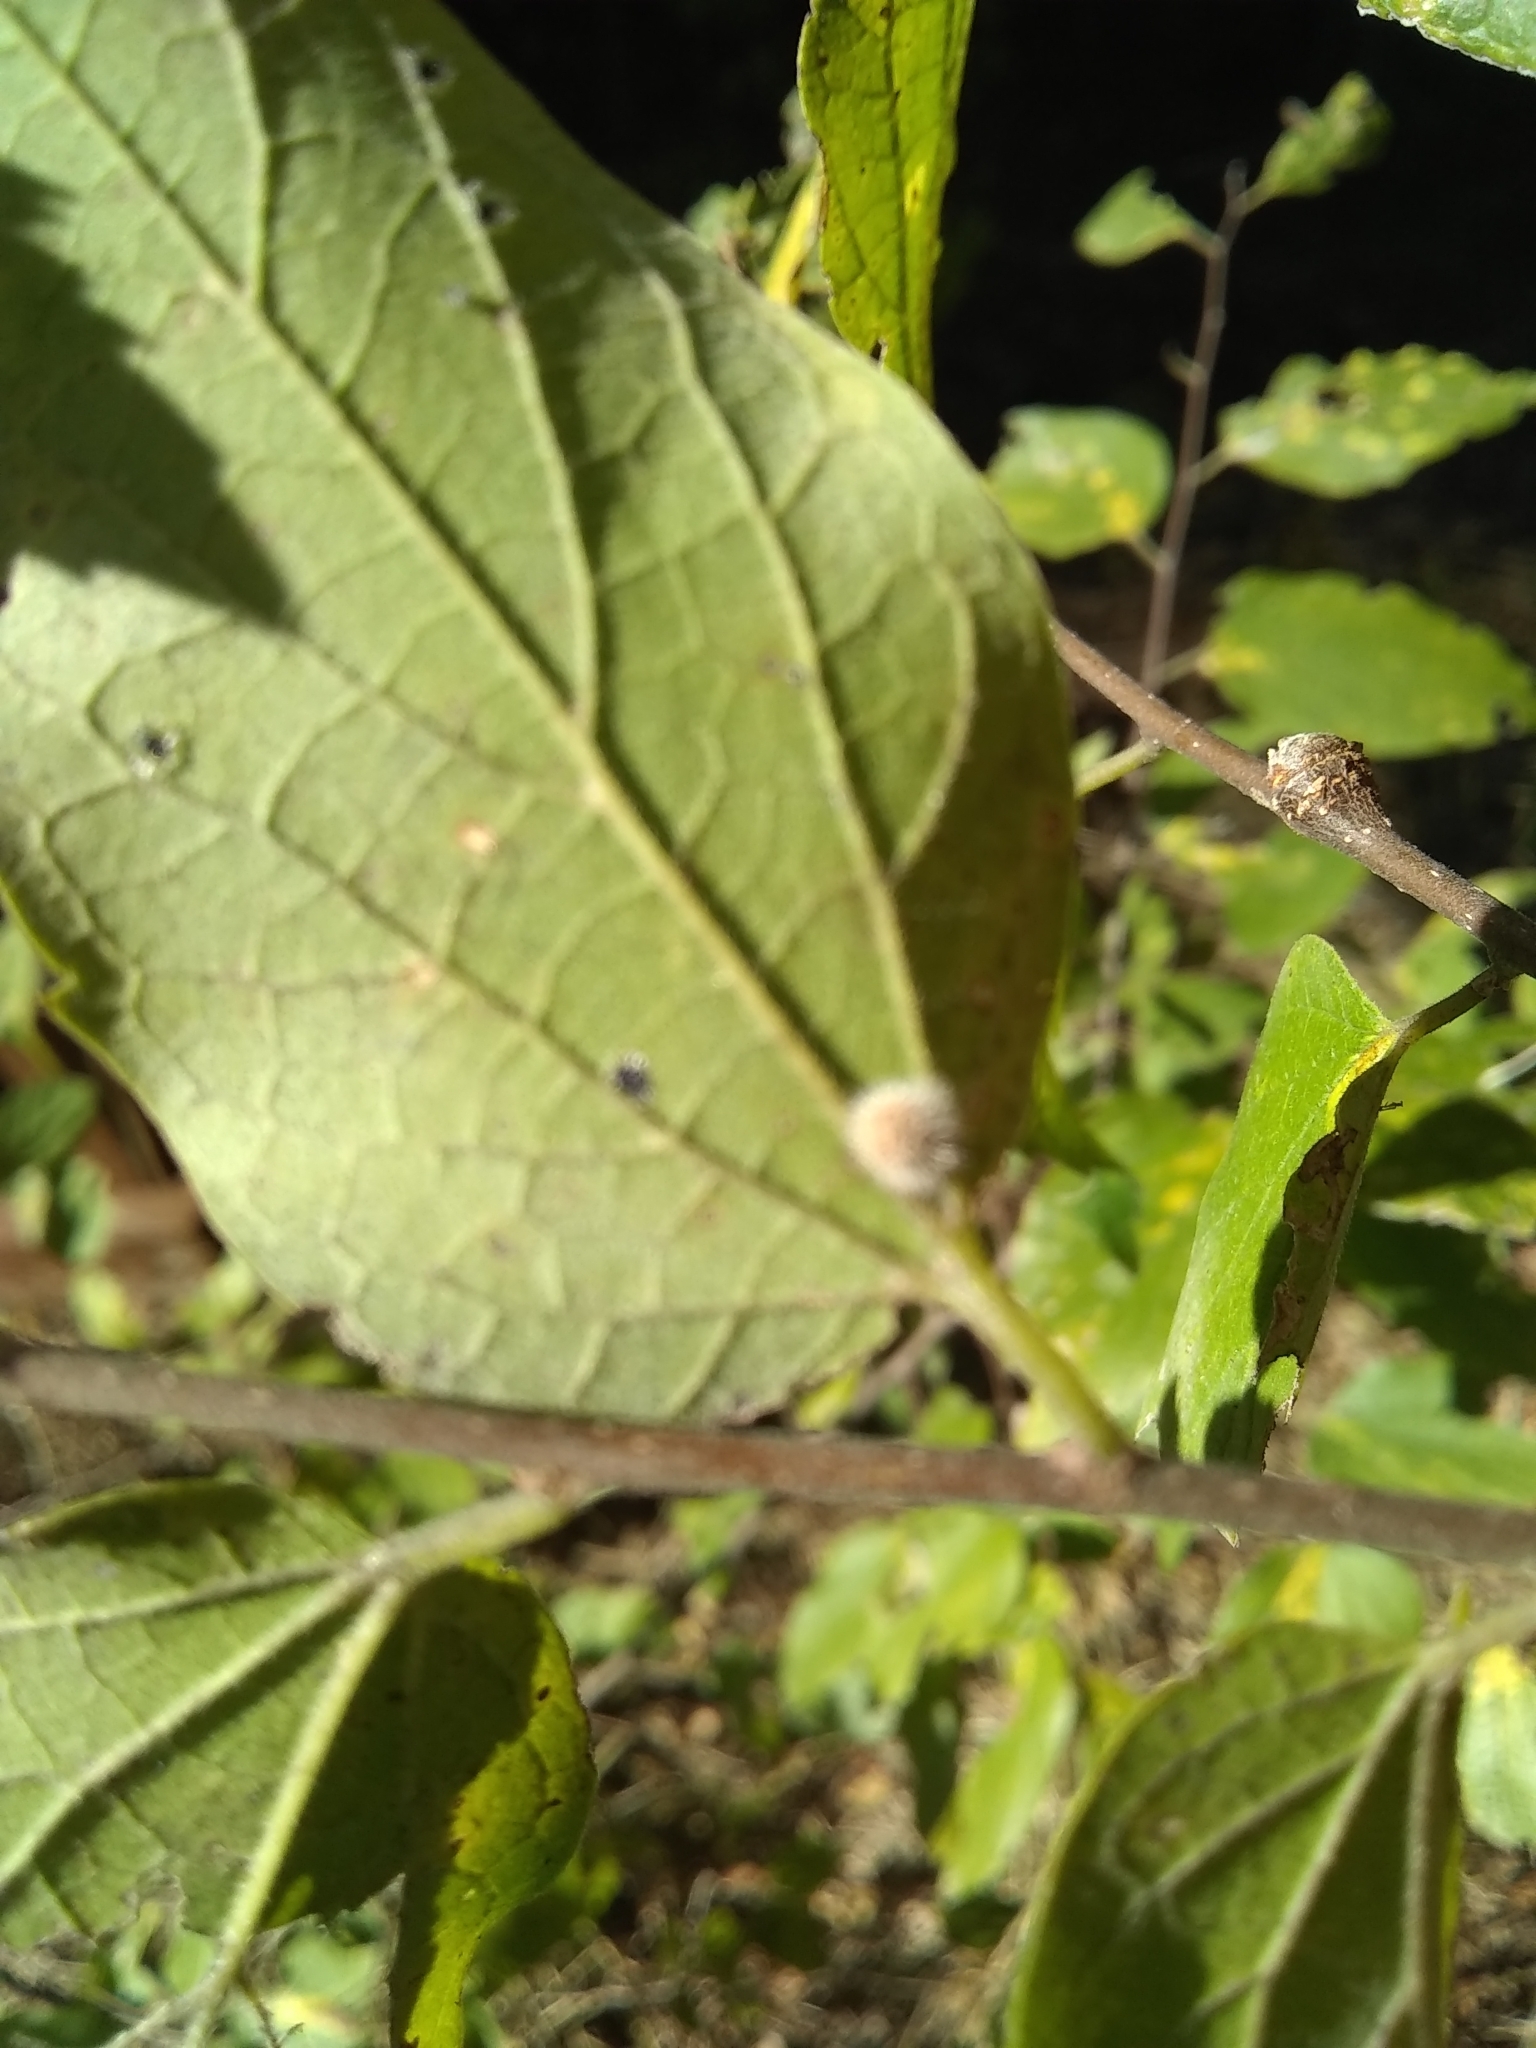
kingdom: Animalia
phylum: Arthropoda
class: Insecta
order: Diptera
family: Cecidomyiidae
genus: Celticecis
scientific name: Celticecis pubescens
